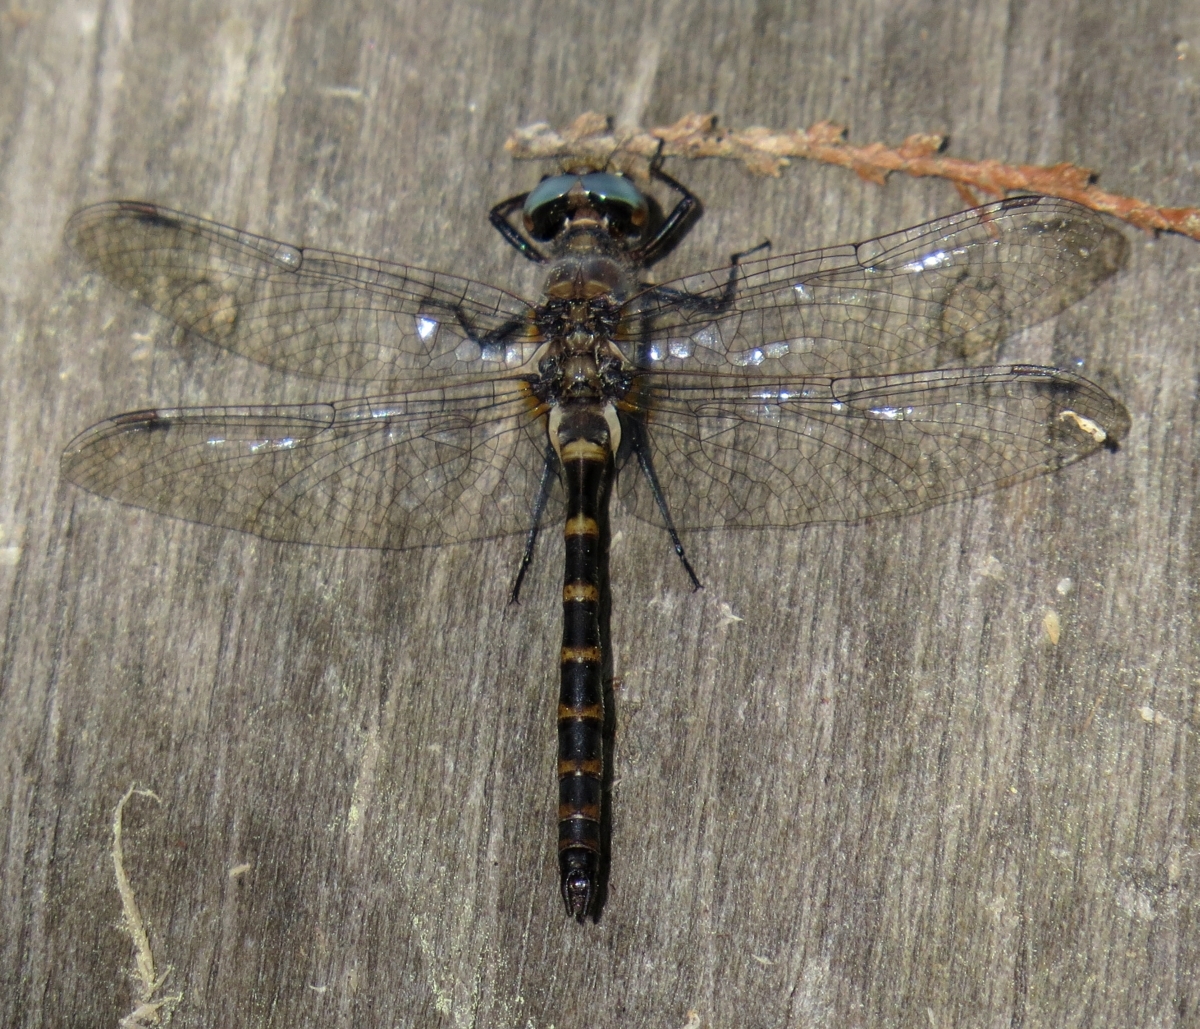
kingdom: Animalia
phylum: Arthropoda
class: Insecta
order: Odonata
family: Corduliidae
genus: Williamsonia
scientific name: Williamsonia lintneri
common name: Ringed boghaunter
